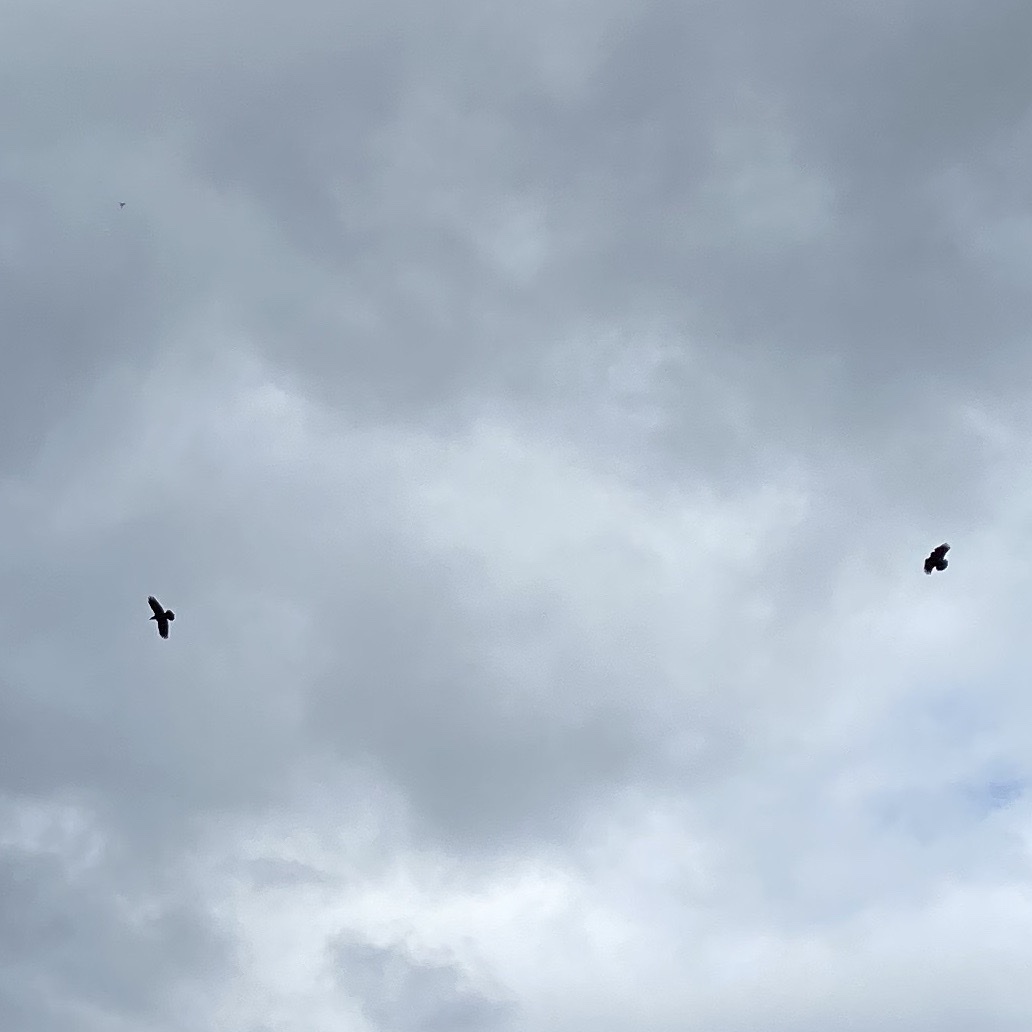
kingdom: Animalia
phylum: Chordata
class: Aves
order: Passeriformes
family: Corvidae
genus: Corvus
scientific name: Corvus corax
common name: Common raven
